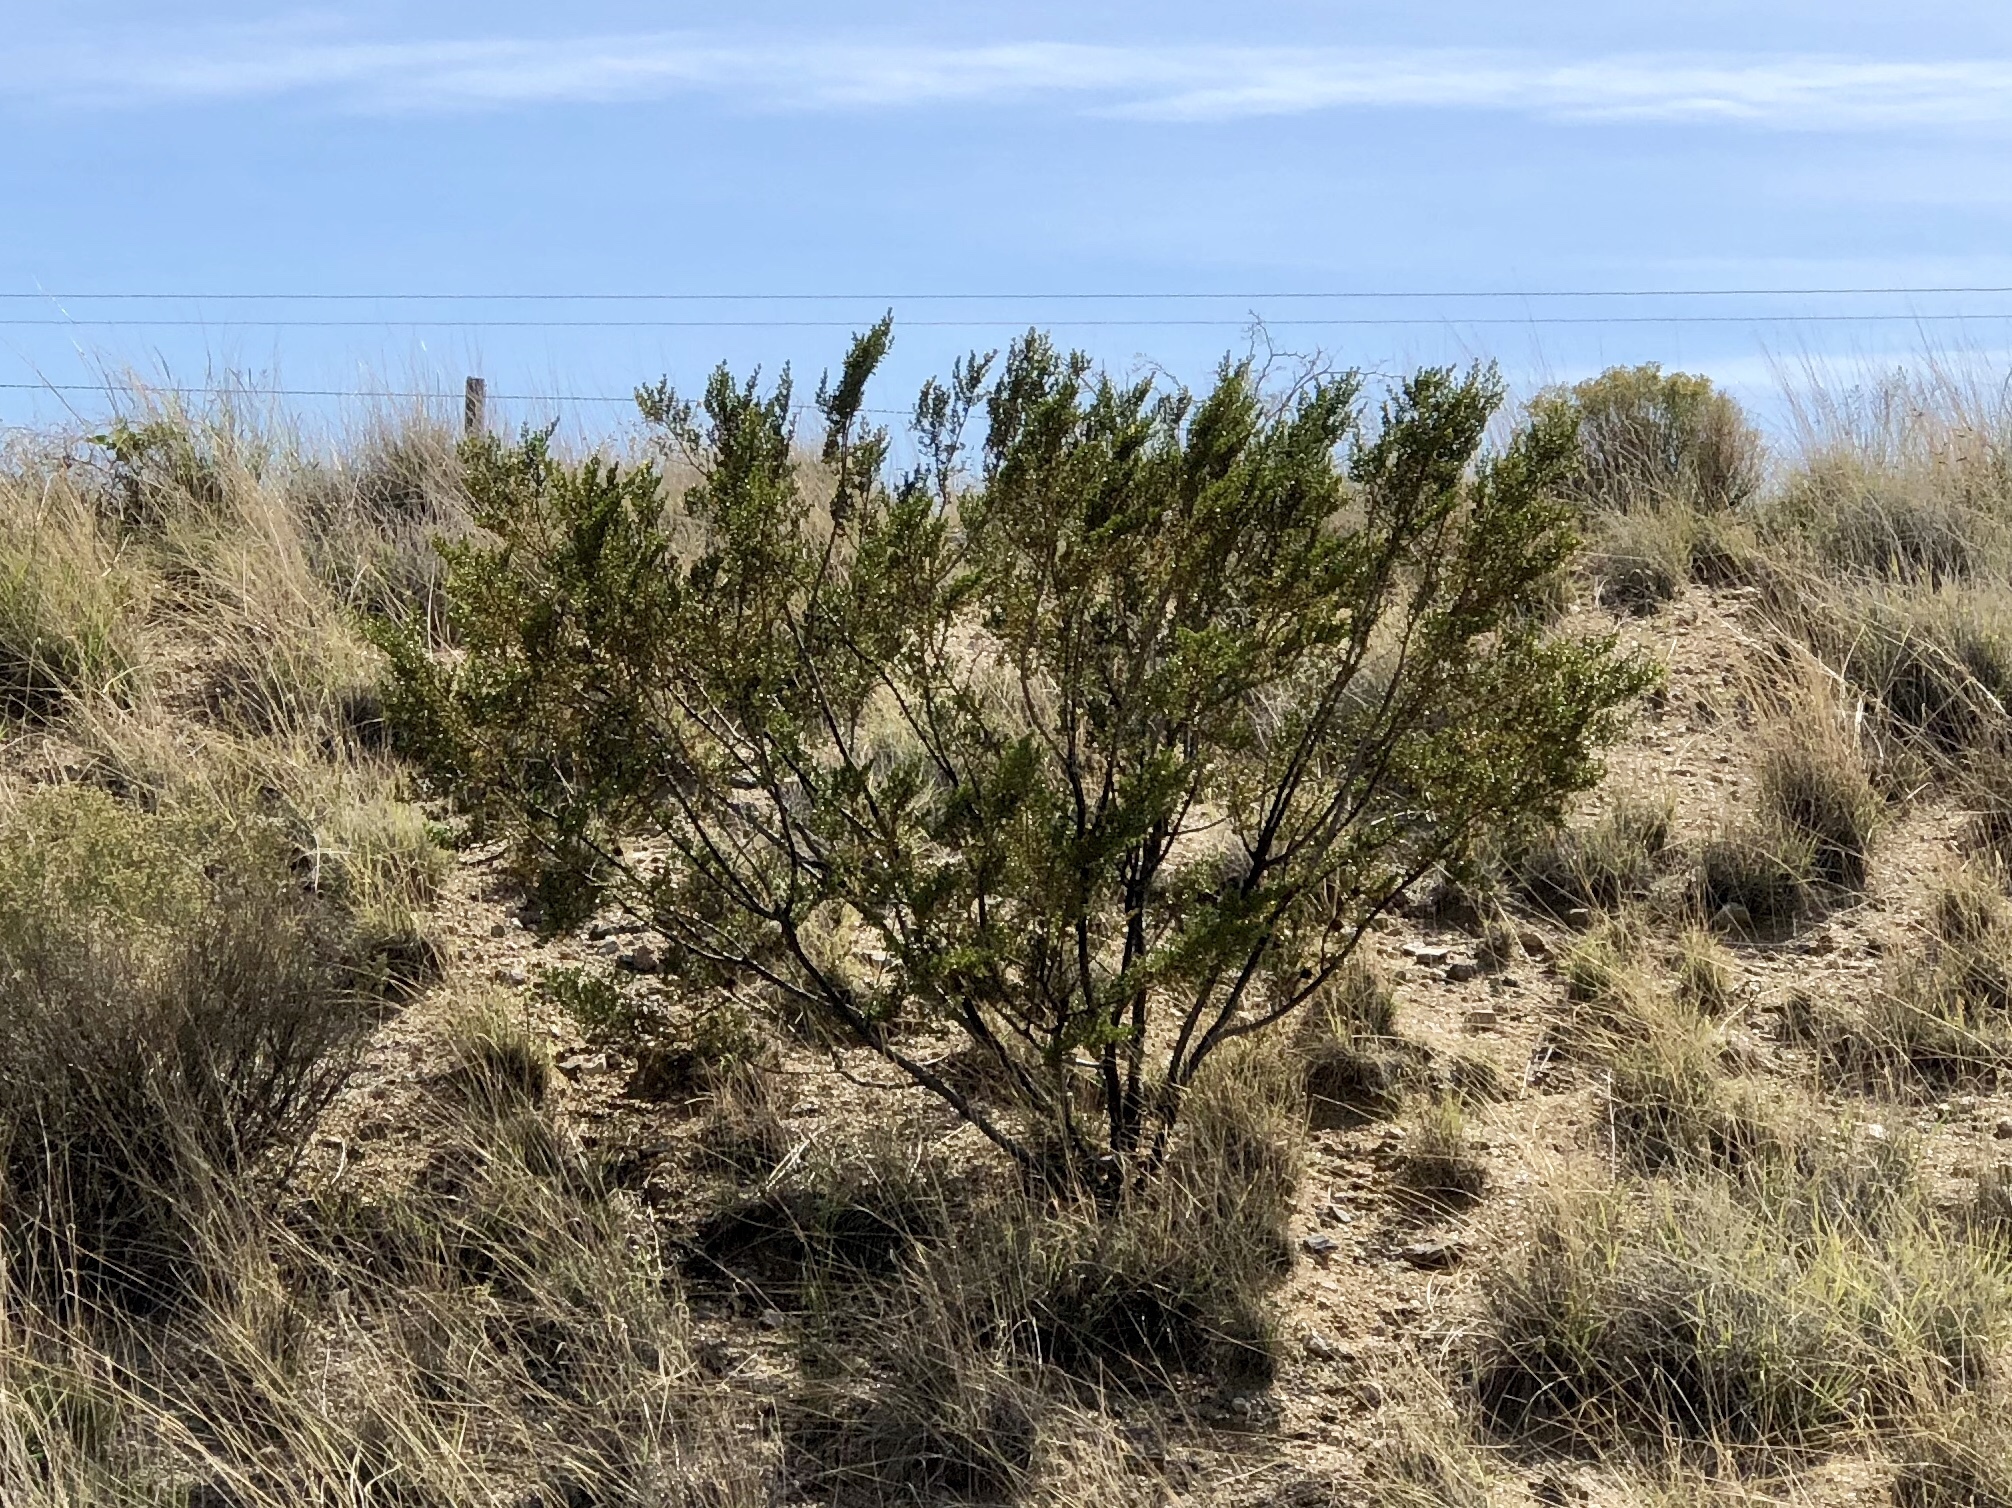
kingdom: Plantae
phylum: Tracheophyta
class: Magnoliopsida
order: Zygophyllales
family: Zygophyllaceae
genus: Larrea
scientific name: Larrea tridentata
